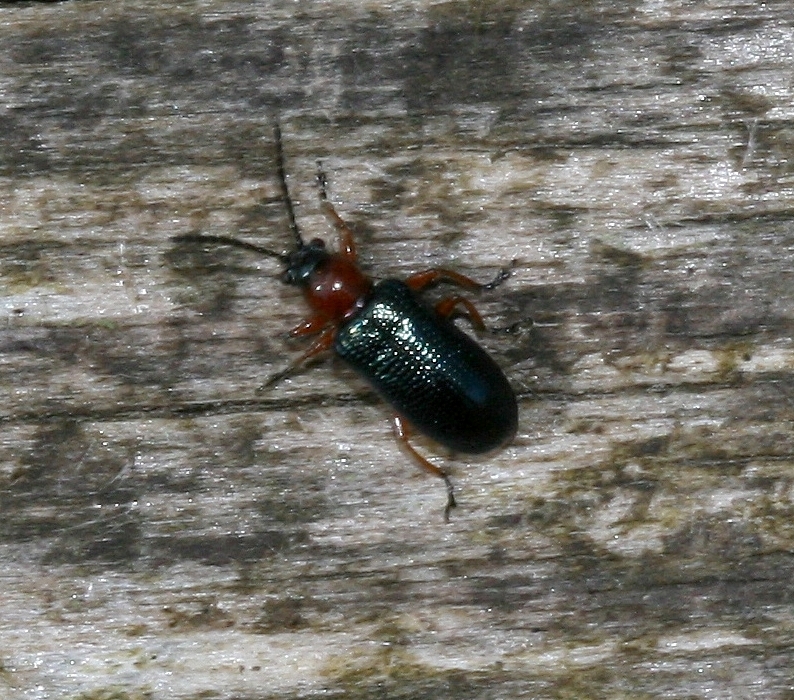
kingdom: Animalia
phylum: Arthropoda
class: Insecta
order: Coleoptera
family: Chrysomelidae
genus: Oulema
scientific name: Oulema
